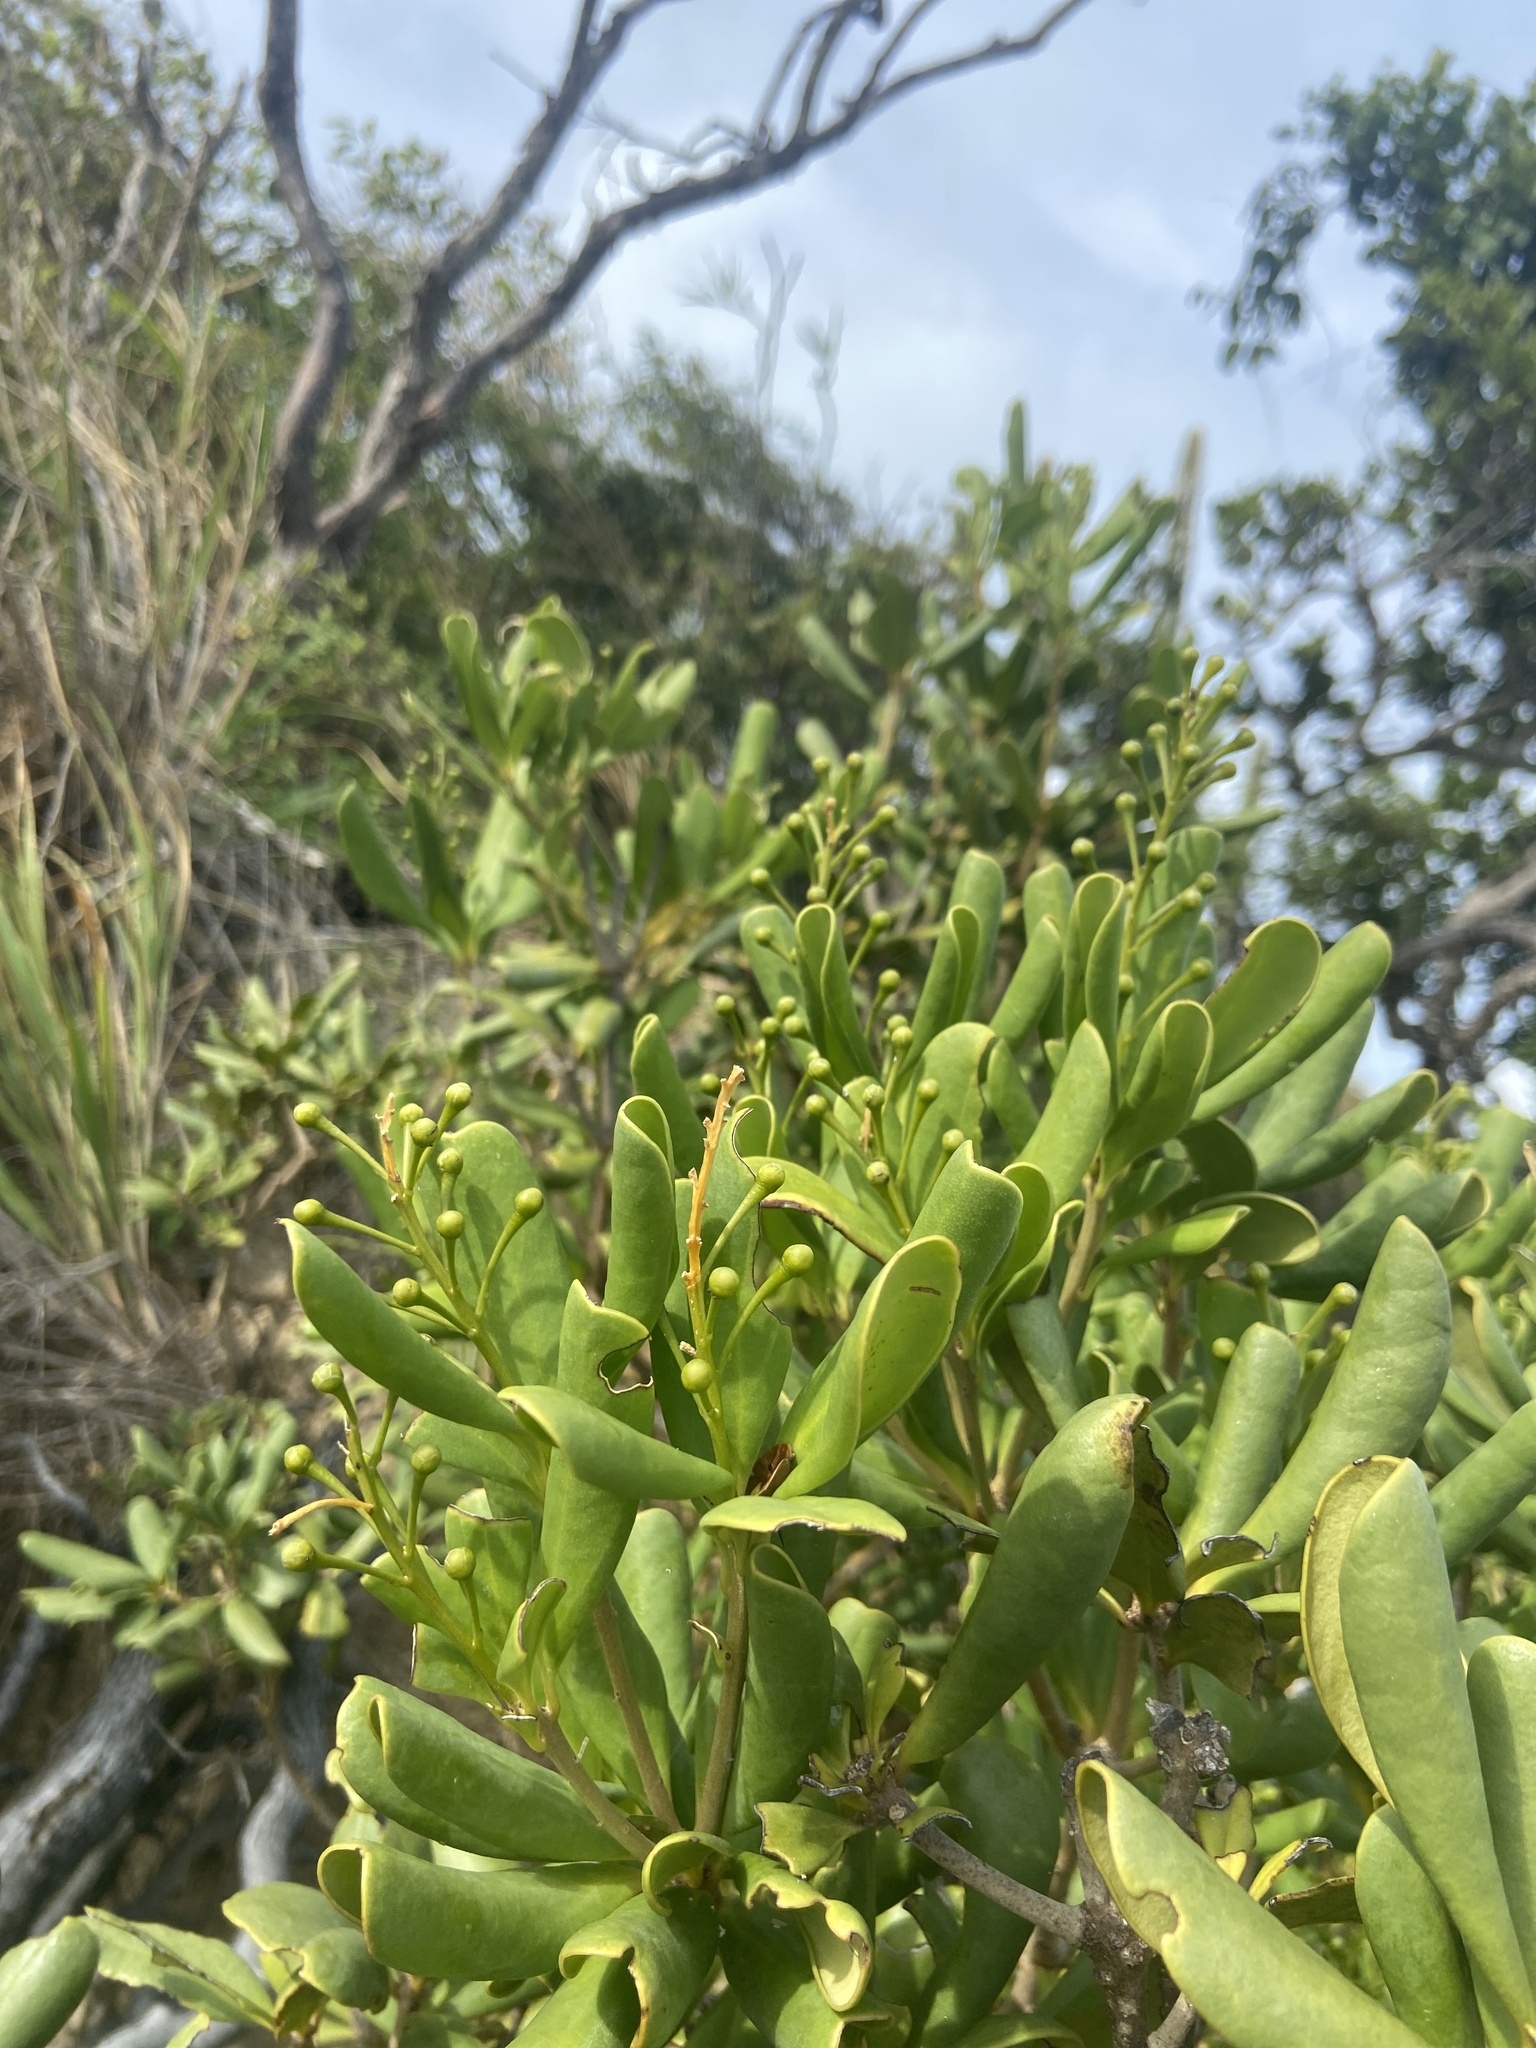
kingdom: Plantae
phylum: Tracheophyta
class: Magnoliopsida
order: Ericales
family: Primulaceae
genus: Jacquinia
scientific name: Jacquinia arborea
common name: Barceletwood
